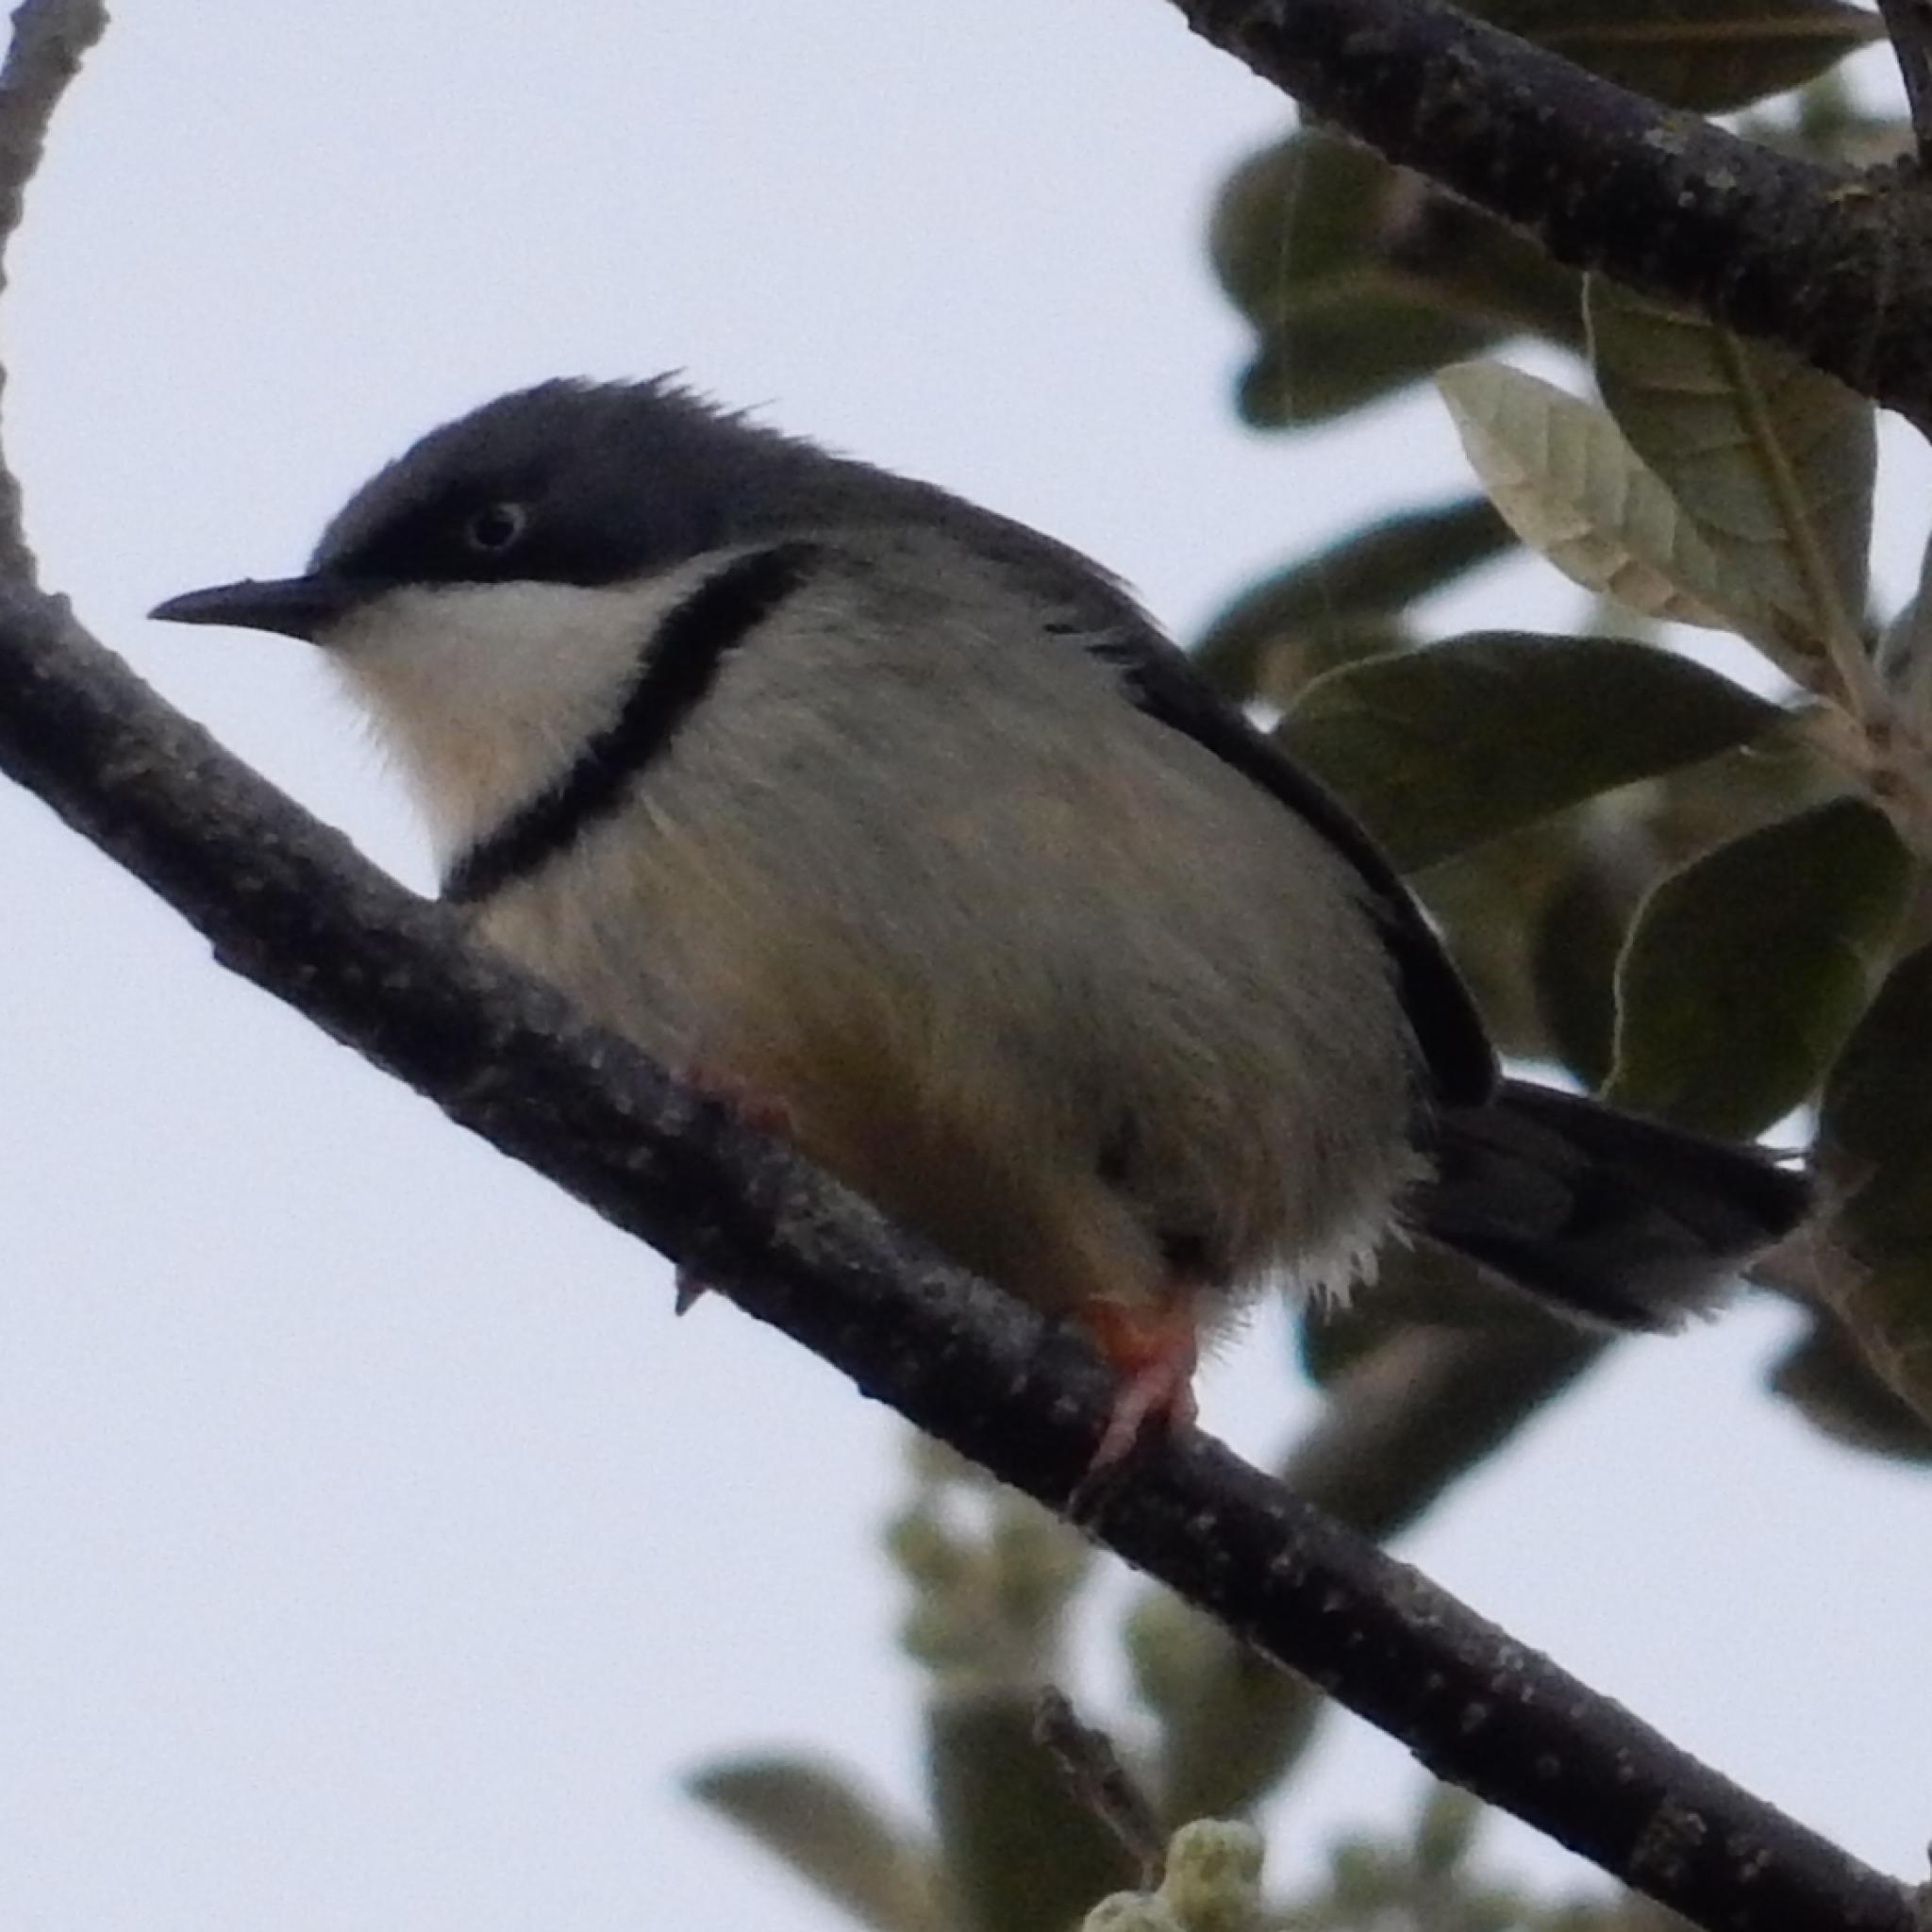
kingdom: Animalia
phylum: Chordata
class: Aves
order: Passeriformes
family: Cisticolidae
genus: Apalis
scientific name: Apalis thoracica
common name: Bar-throated apalis
